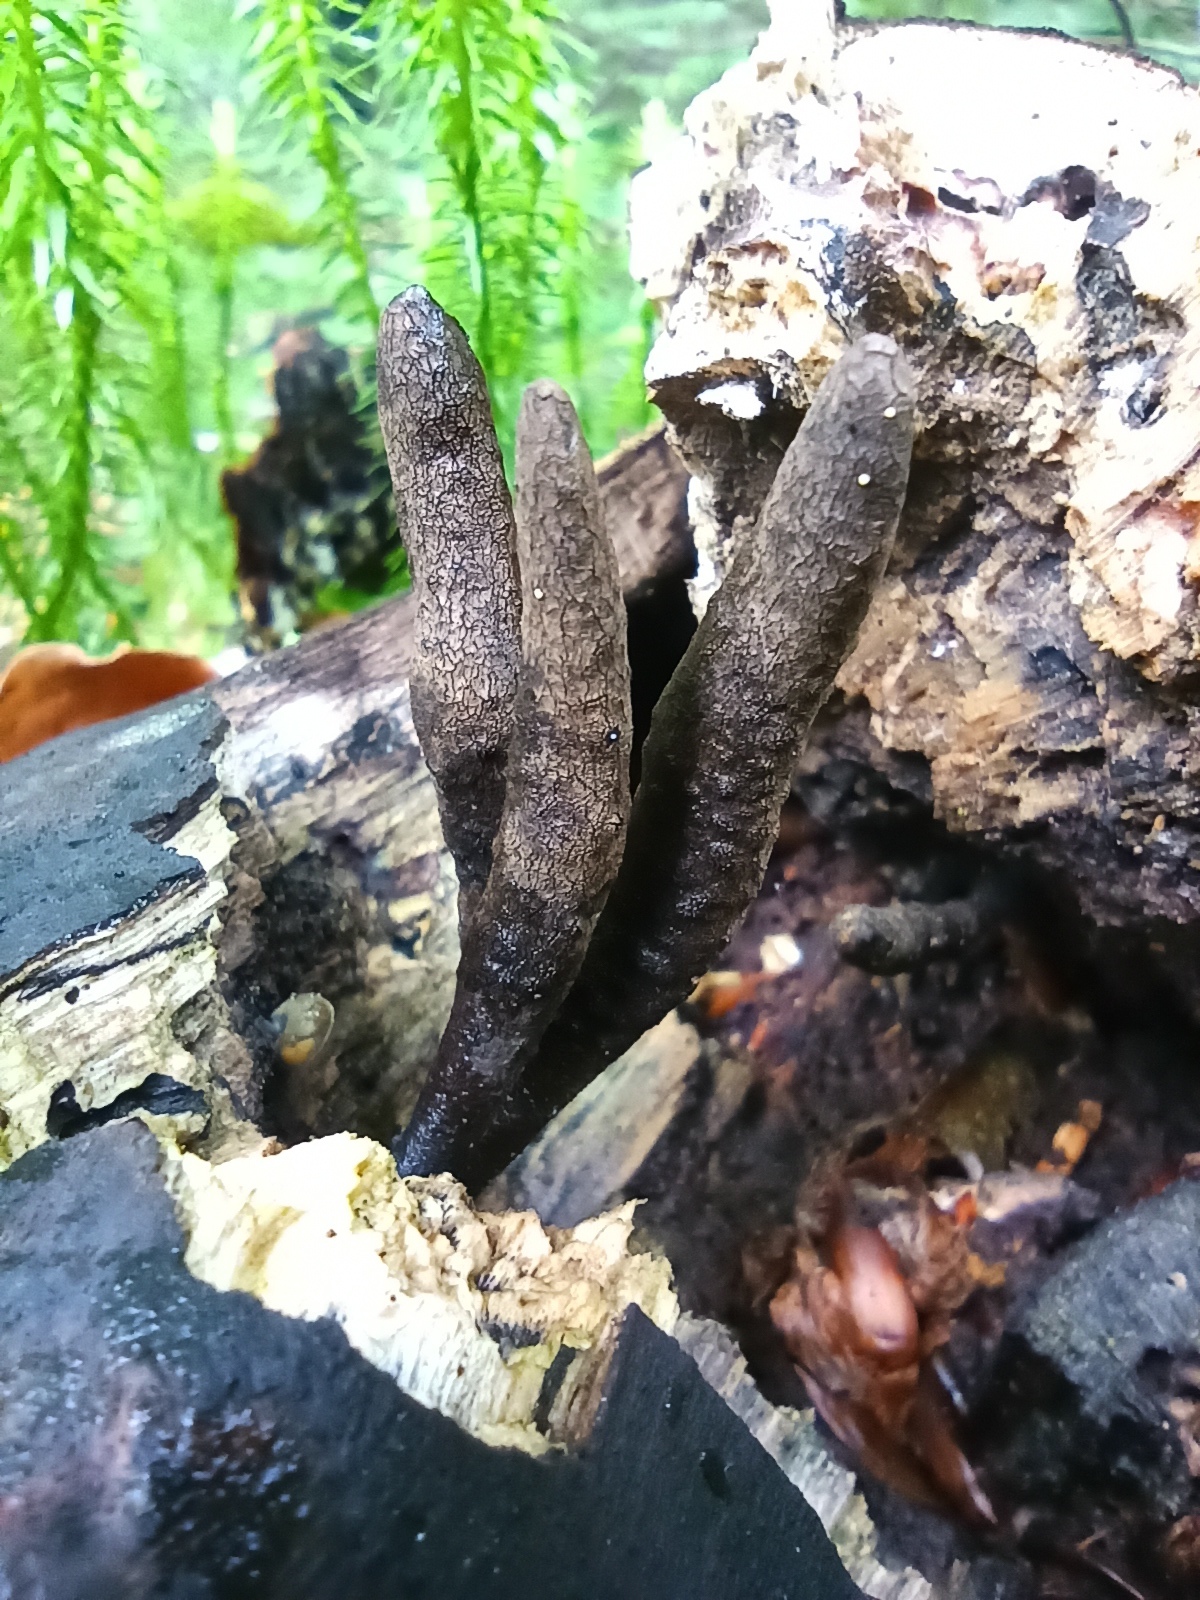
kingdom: Fungi
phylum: Ascomycota
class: Sordariomycetes
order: Xylariales
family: Xylariaceae
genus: Xylaria
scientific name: Xylaria longipes
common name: Dead moll's fingers
